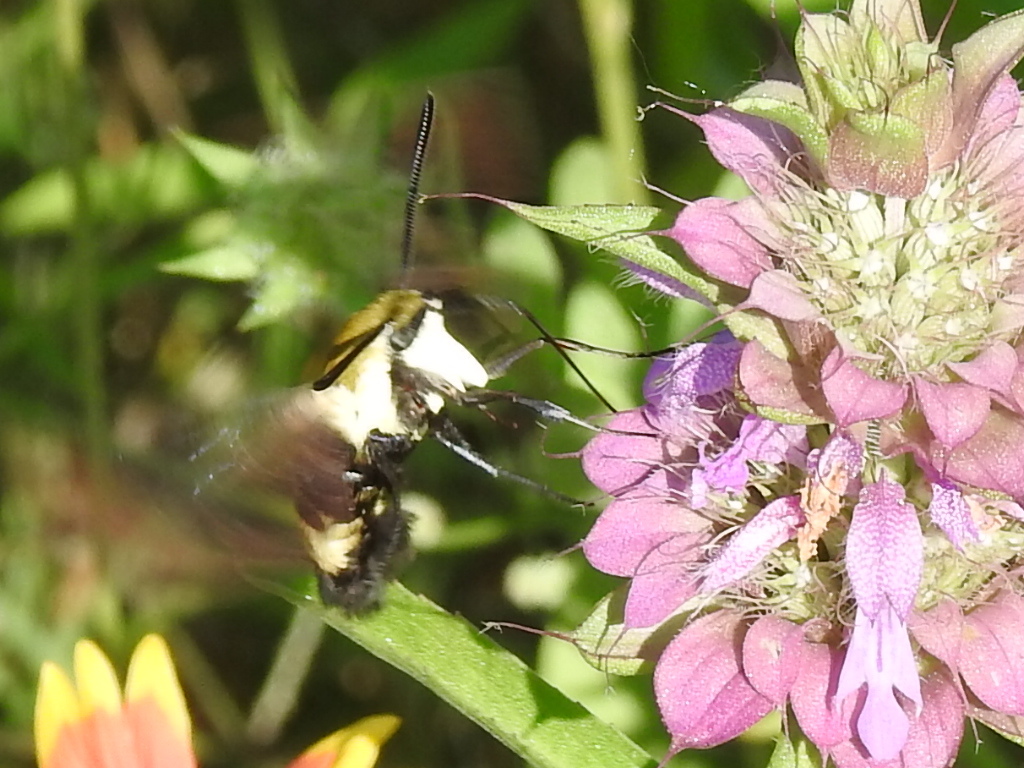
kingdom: Animalia
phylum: Arthropoda
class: Insecta
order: Lepidoptera
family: Sphingidae
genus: Hemaris
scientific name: Hemaris diffinis
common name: Bumblebee moth
